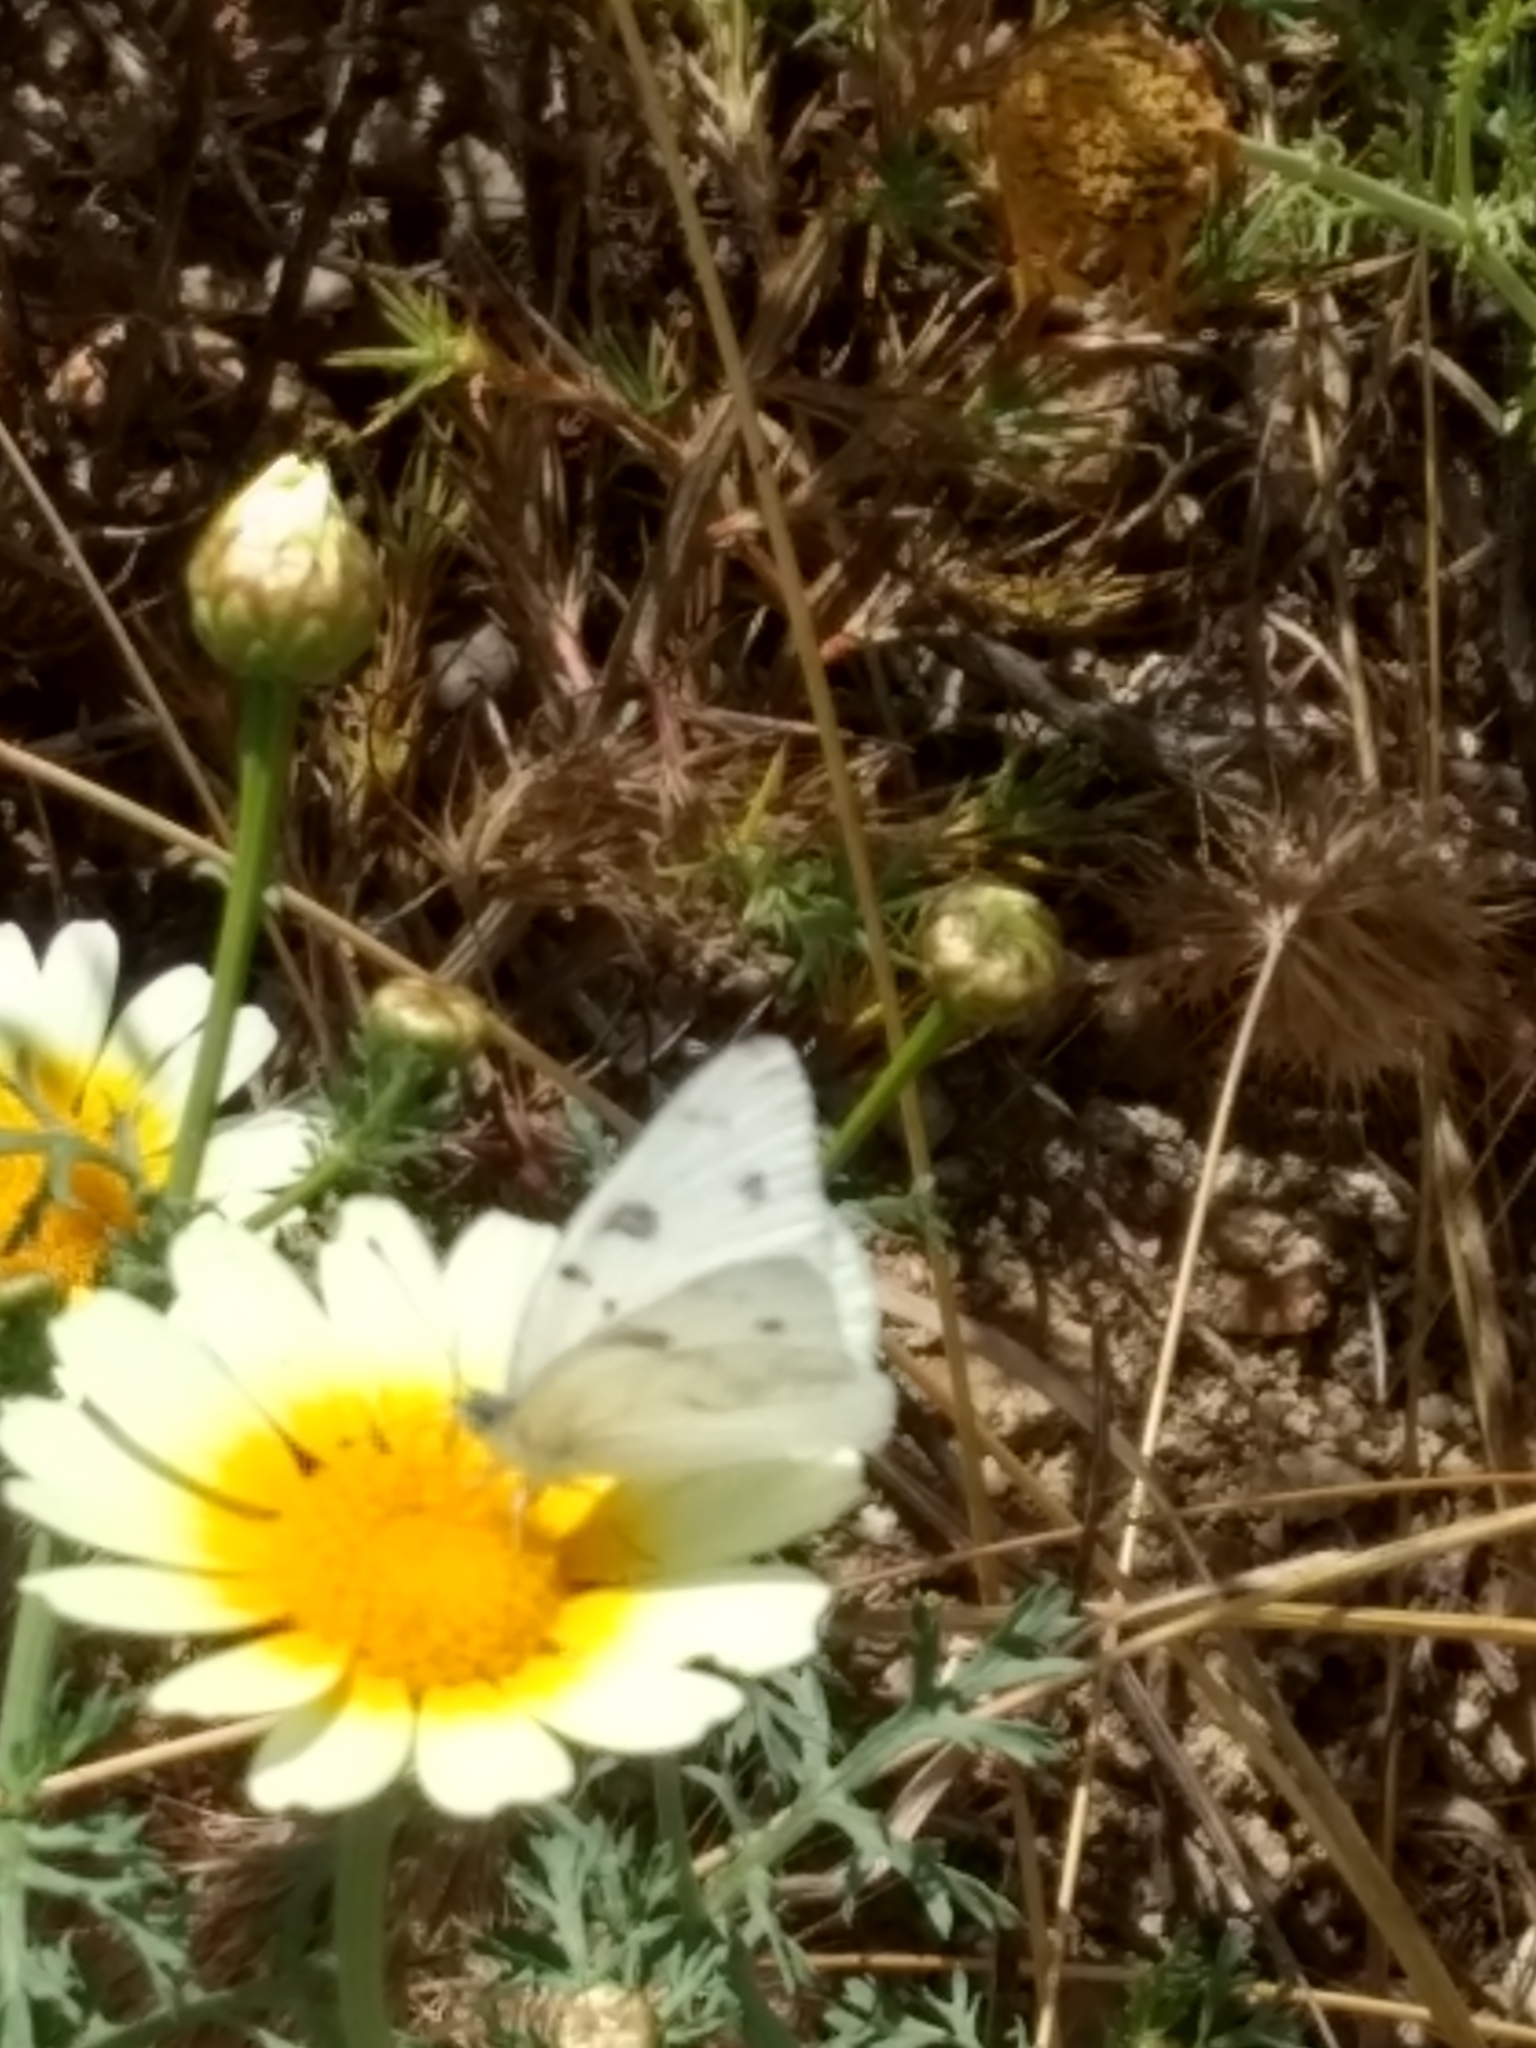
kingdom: Animalia
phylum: Arthropoda
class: Insecta
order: Lepidoptera
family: Pieridae
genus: Pontia
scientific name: Pontia protodice
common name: Checkered white
